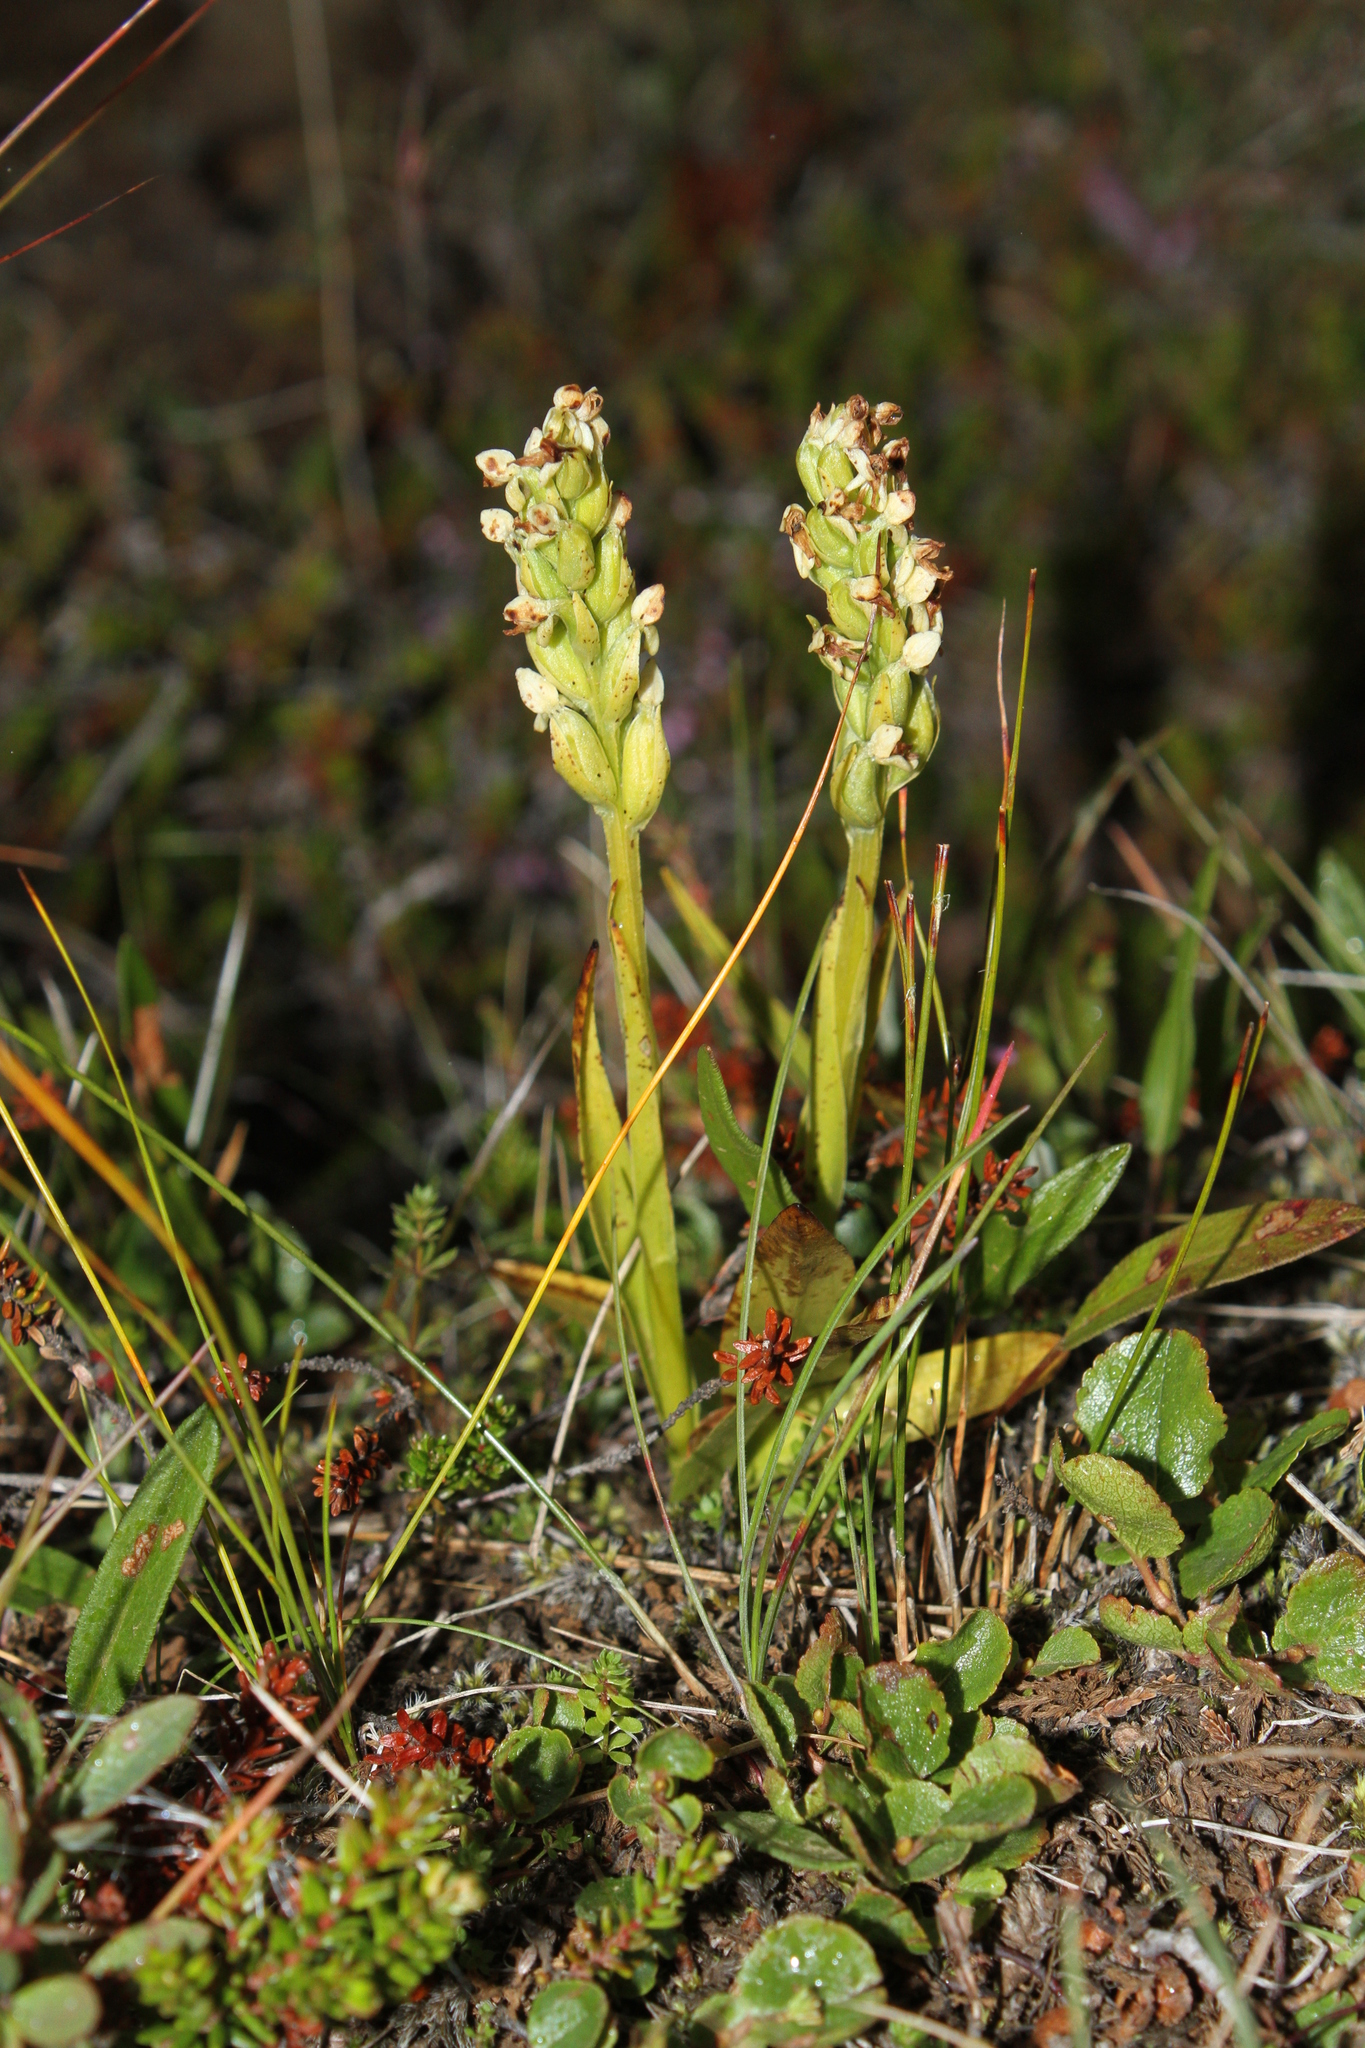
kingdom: Plantae
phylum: Tracheophyta
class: Liliopsida
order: Asparagales
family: Orchidaceae
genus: Platanthera
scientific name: Platanthera hyperborea
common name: Northern green orchid
